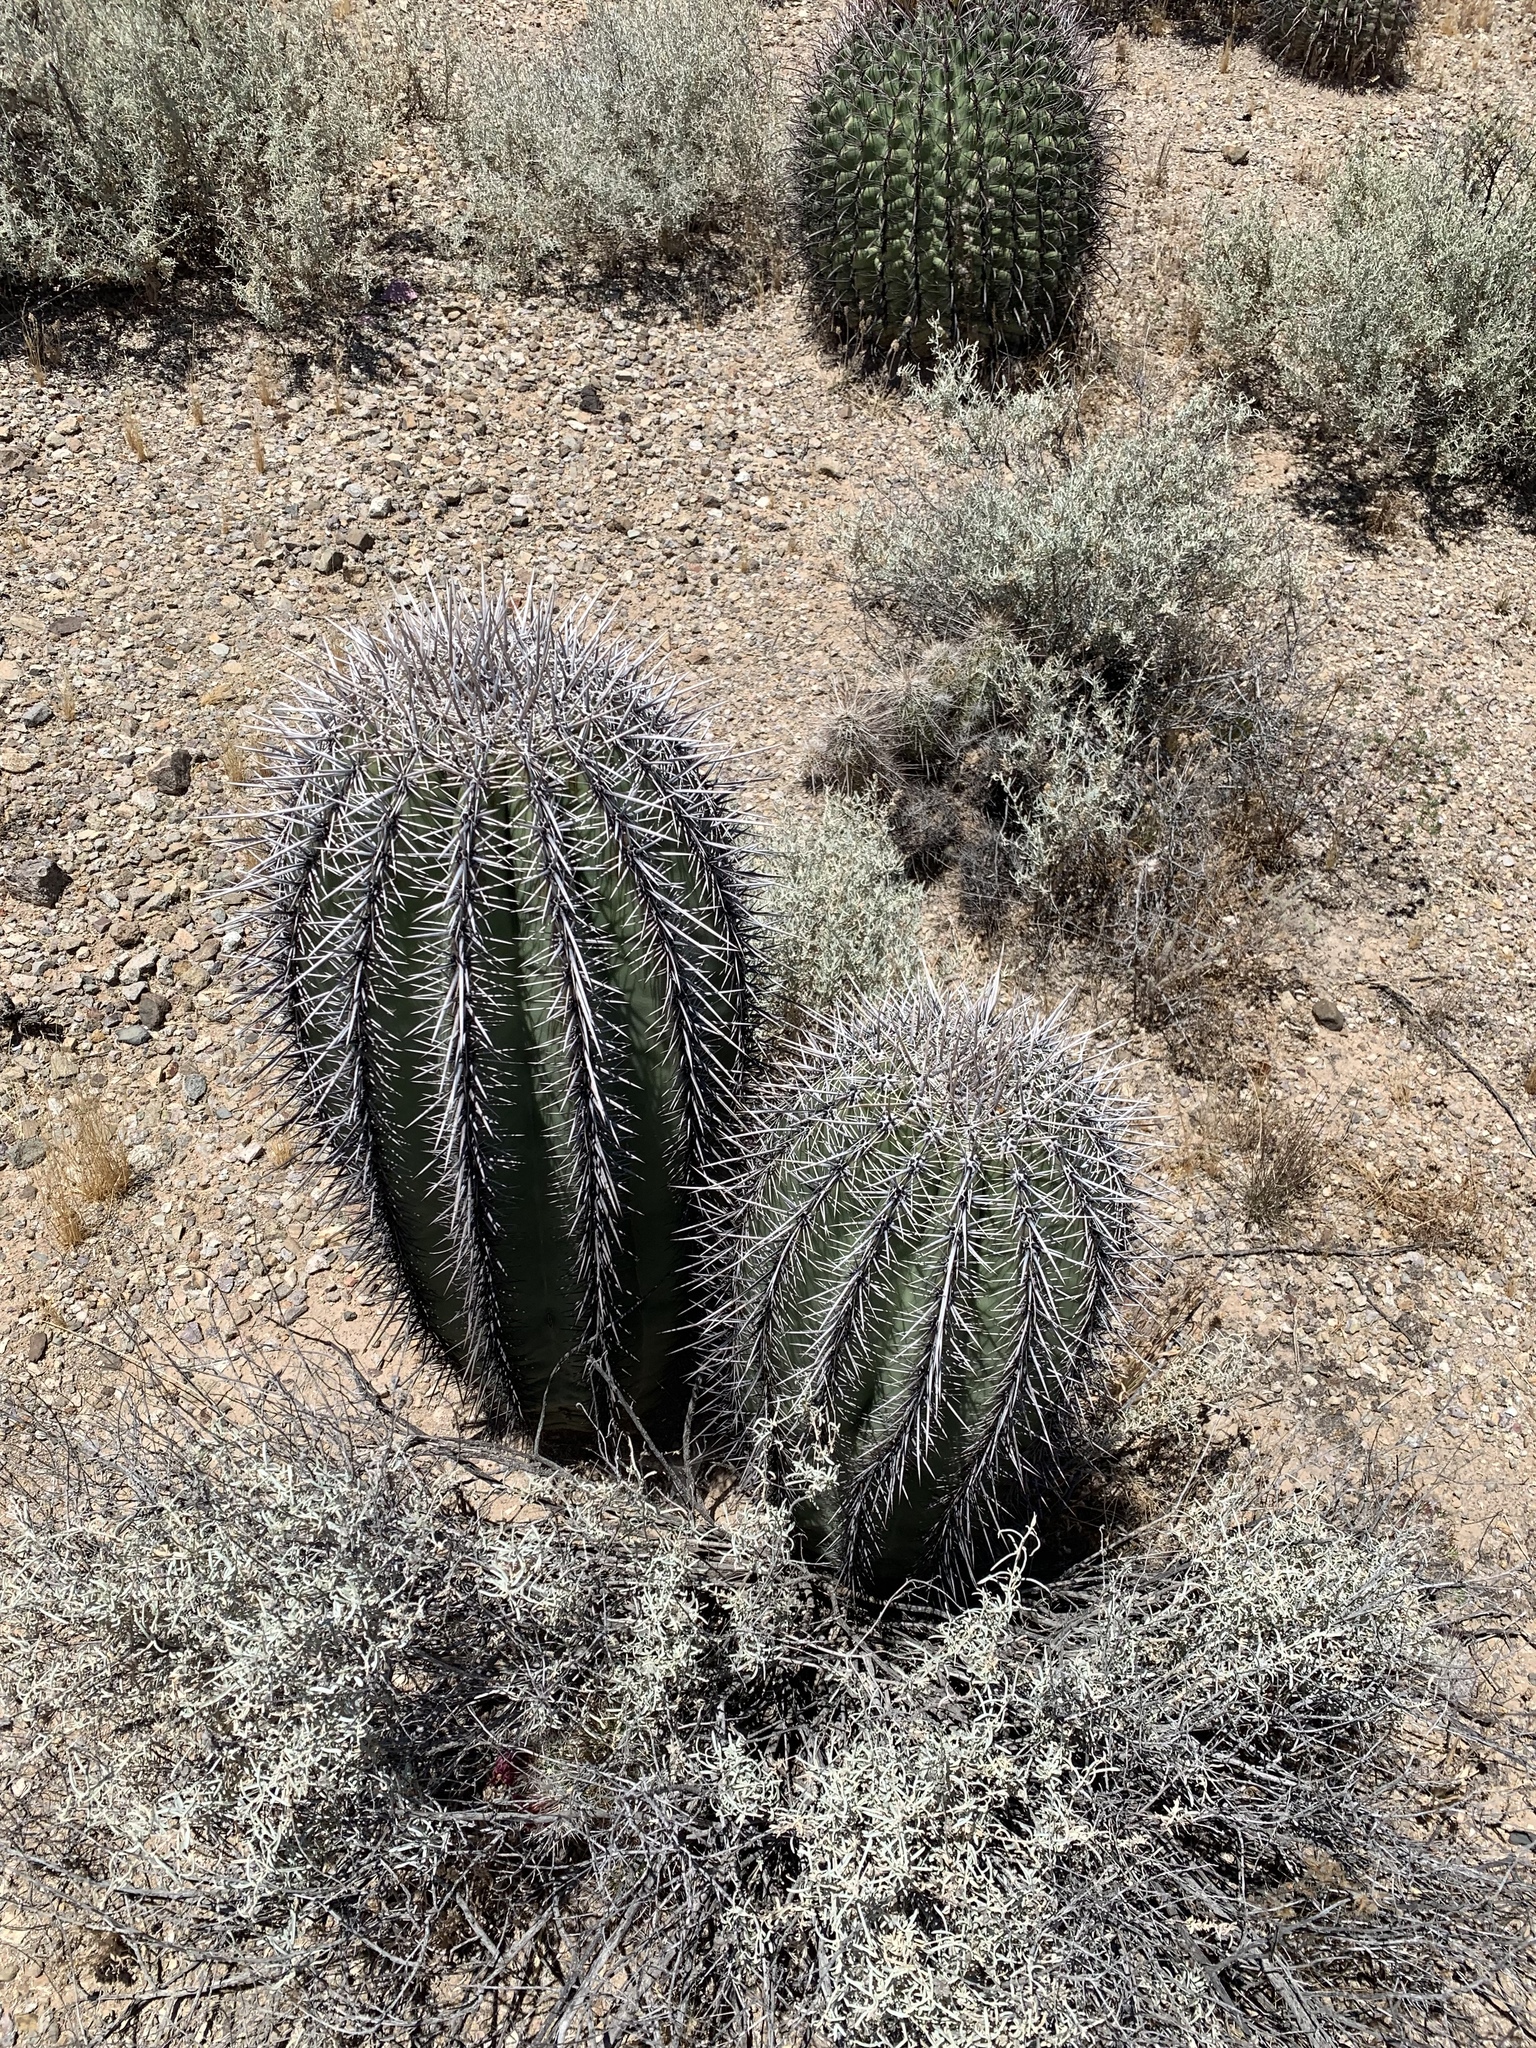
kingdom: Plantae
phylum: Tracheophyta
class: Magnoliopsida
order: Caryophyllales
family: Cactaceae
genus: Carnegiea
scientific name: Carnegiea gigantea
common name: Saguaro
